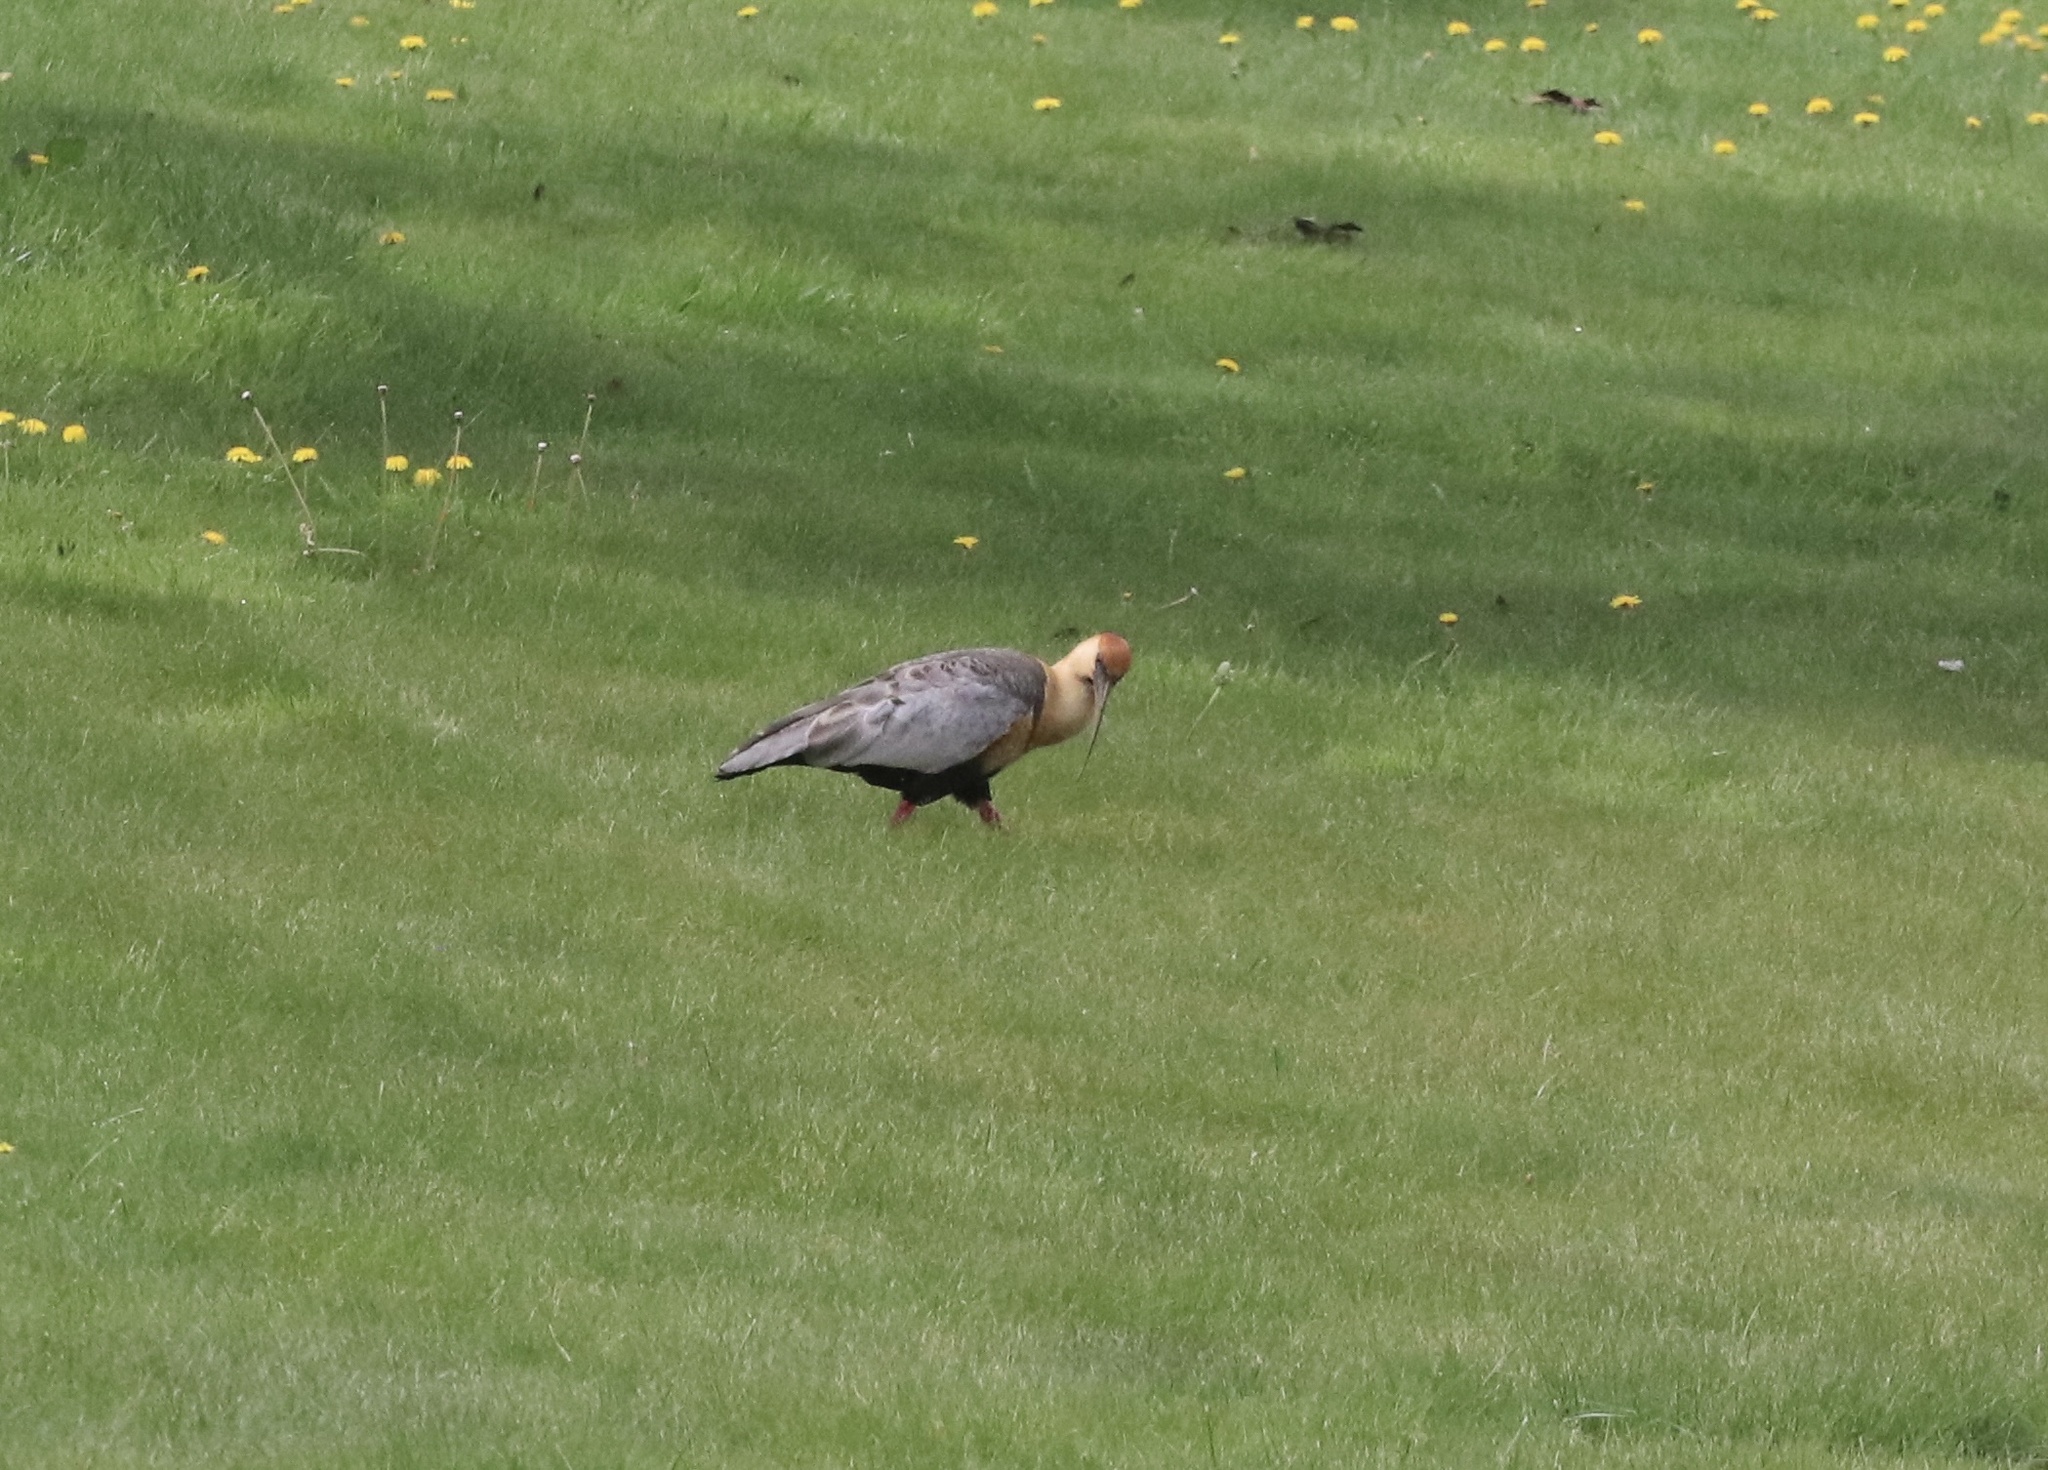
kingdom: Animalia
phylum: Chordata
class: Aves
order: Pelecaniformes
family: Threskiornithidae
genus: Theristicus
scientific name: Theristicus melanopis
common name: Black-faced ibis
